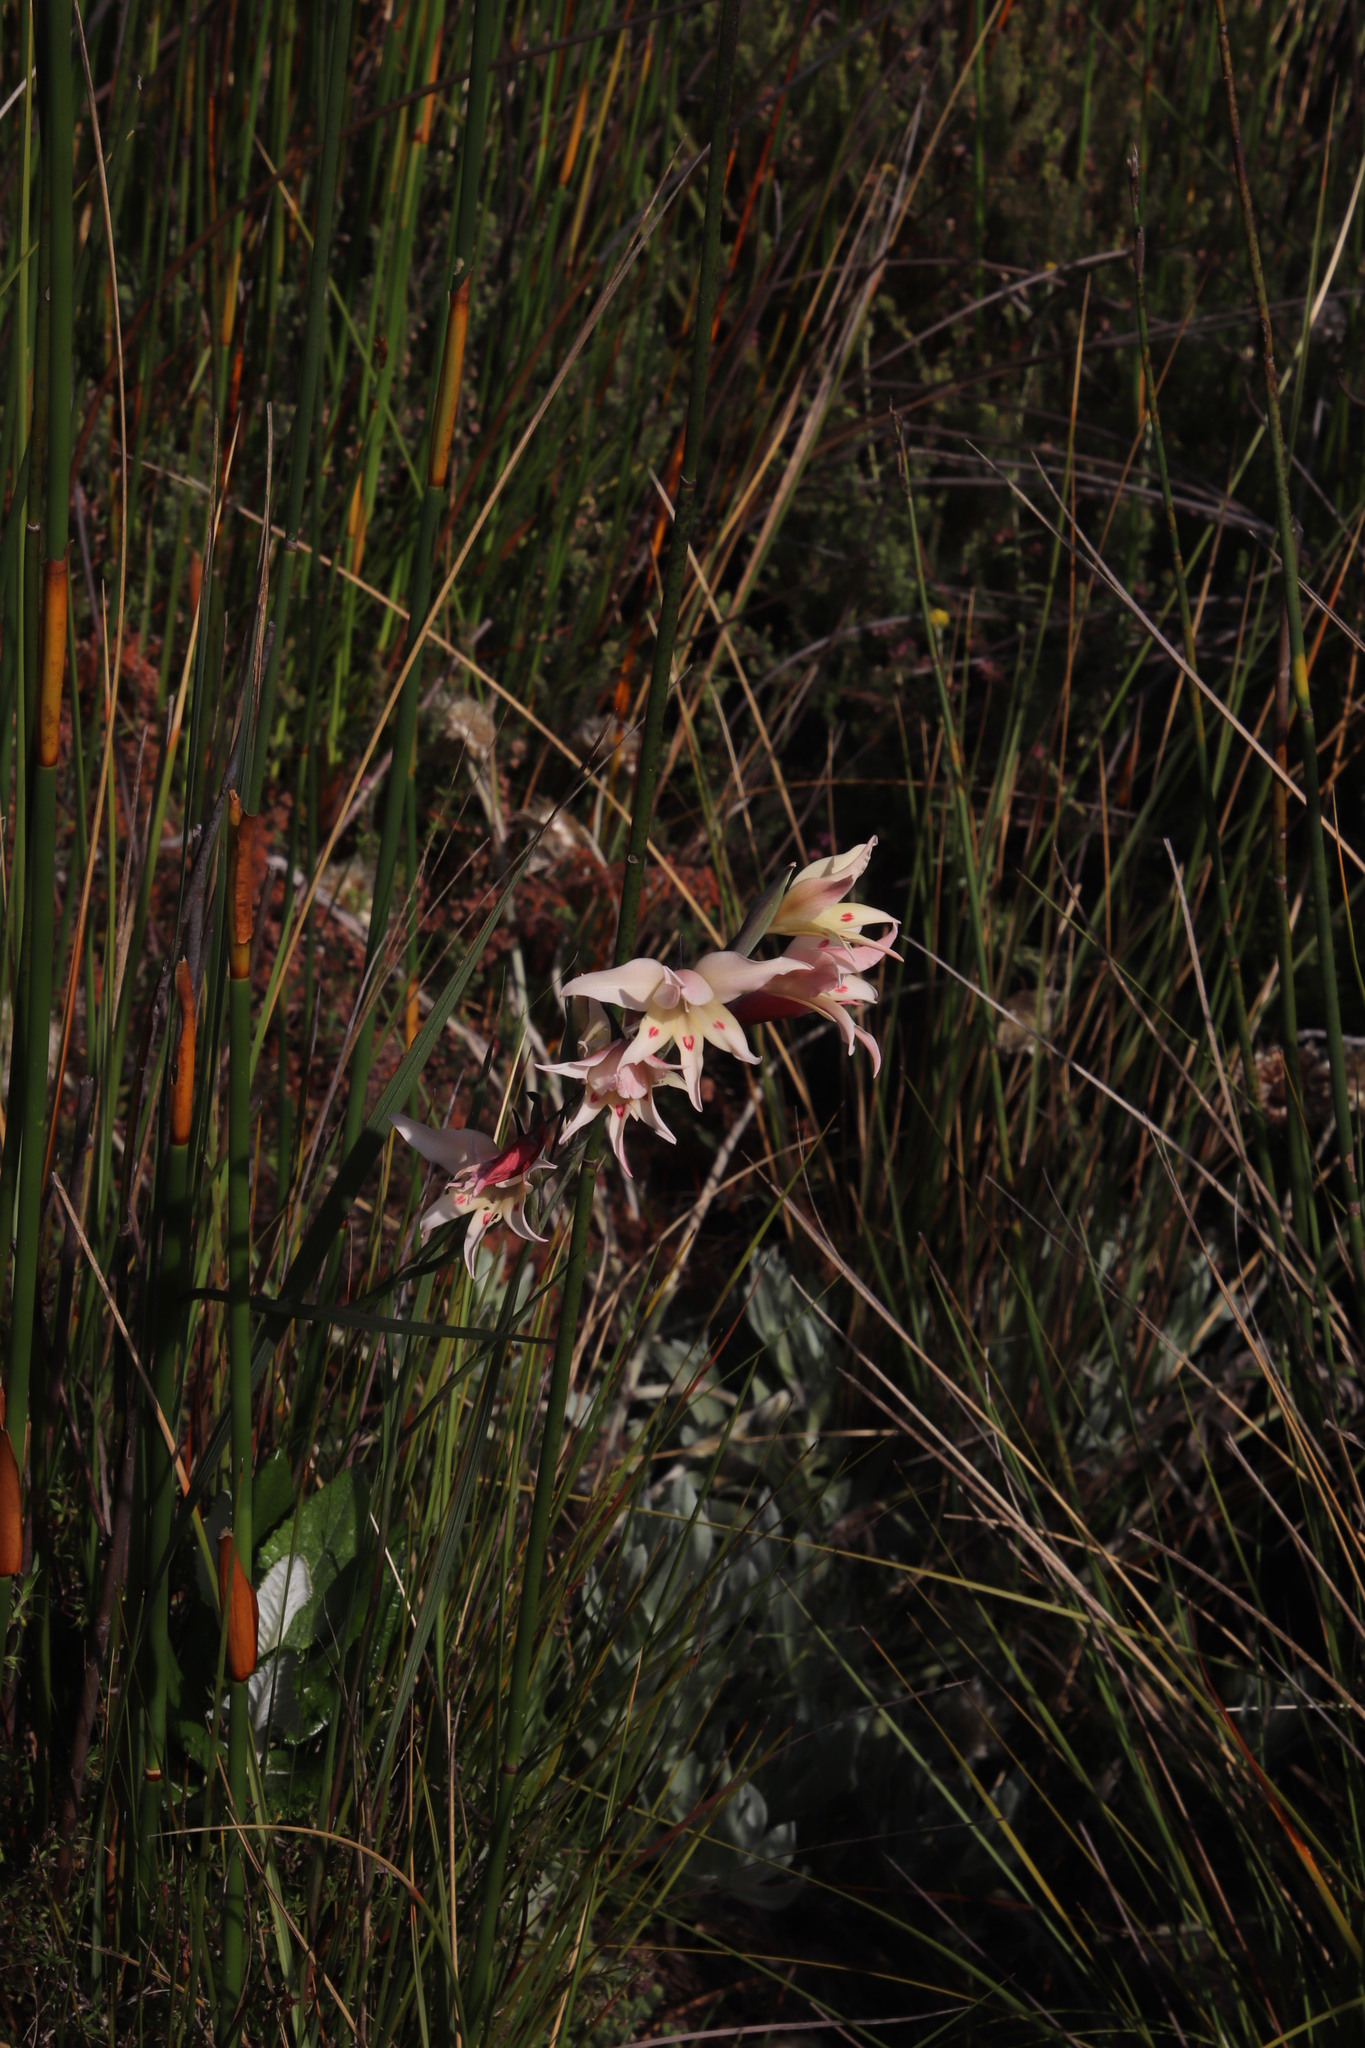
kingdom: Plantae
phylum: Tracheophyta
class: Liliopsida
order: Asparagales
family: Iridaceae
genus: Gladiolus
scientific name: Gladiolus carneus
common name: Painted-lady
